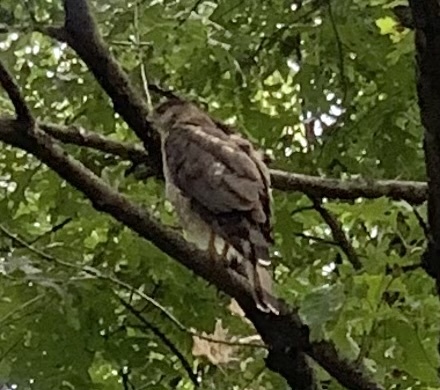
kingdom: Animalia
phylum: Chordata
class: Aves
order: Accipitriformes
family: Accipitridae
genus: Accipiter
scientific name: Accipiter cooperii
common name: Cooper's hawk
